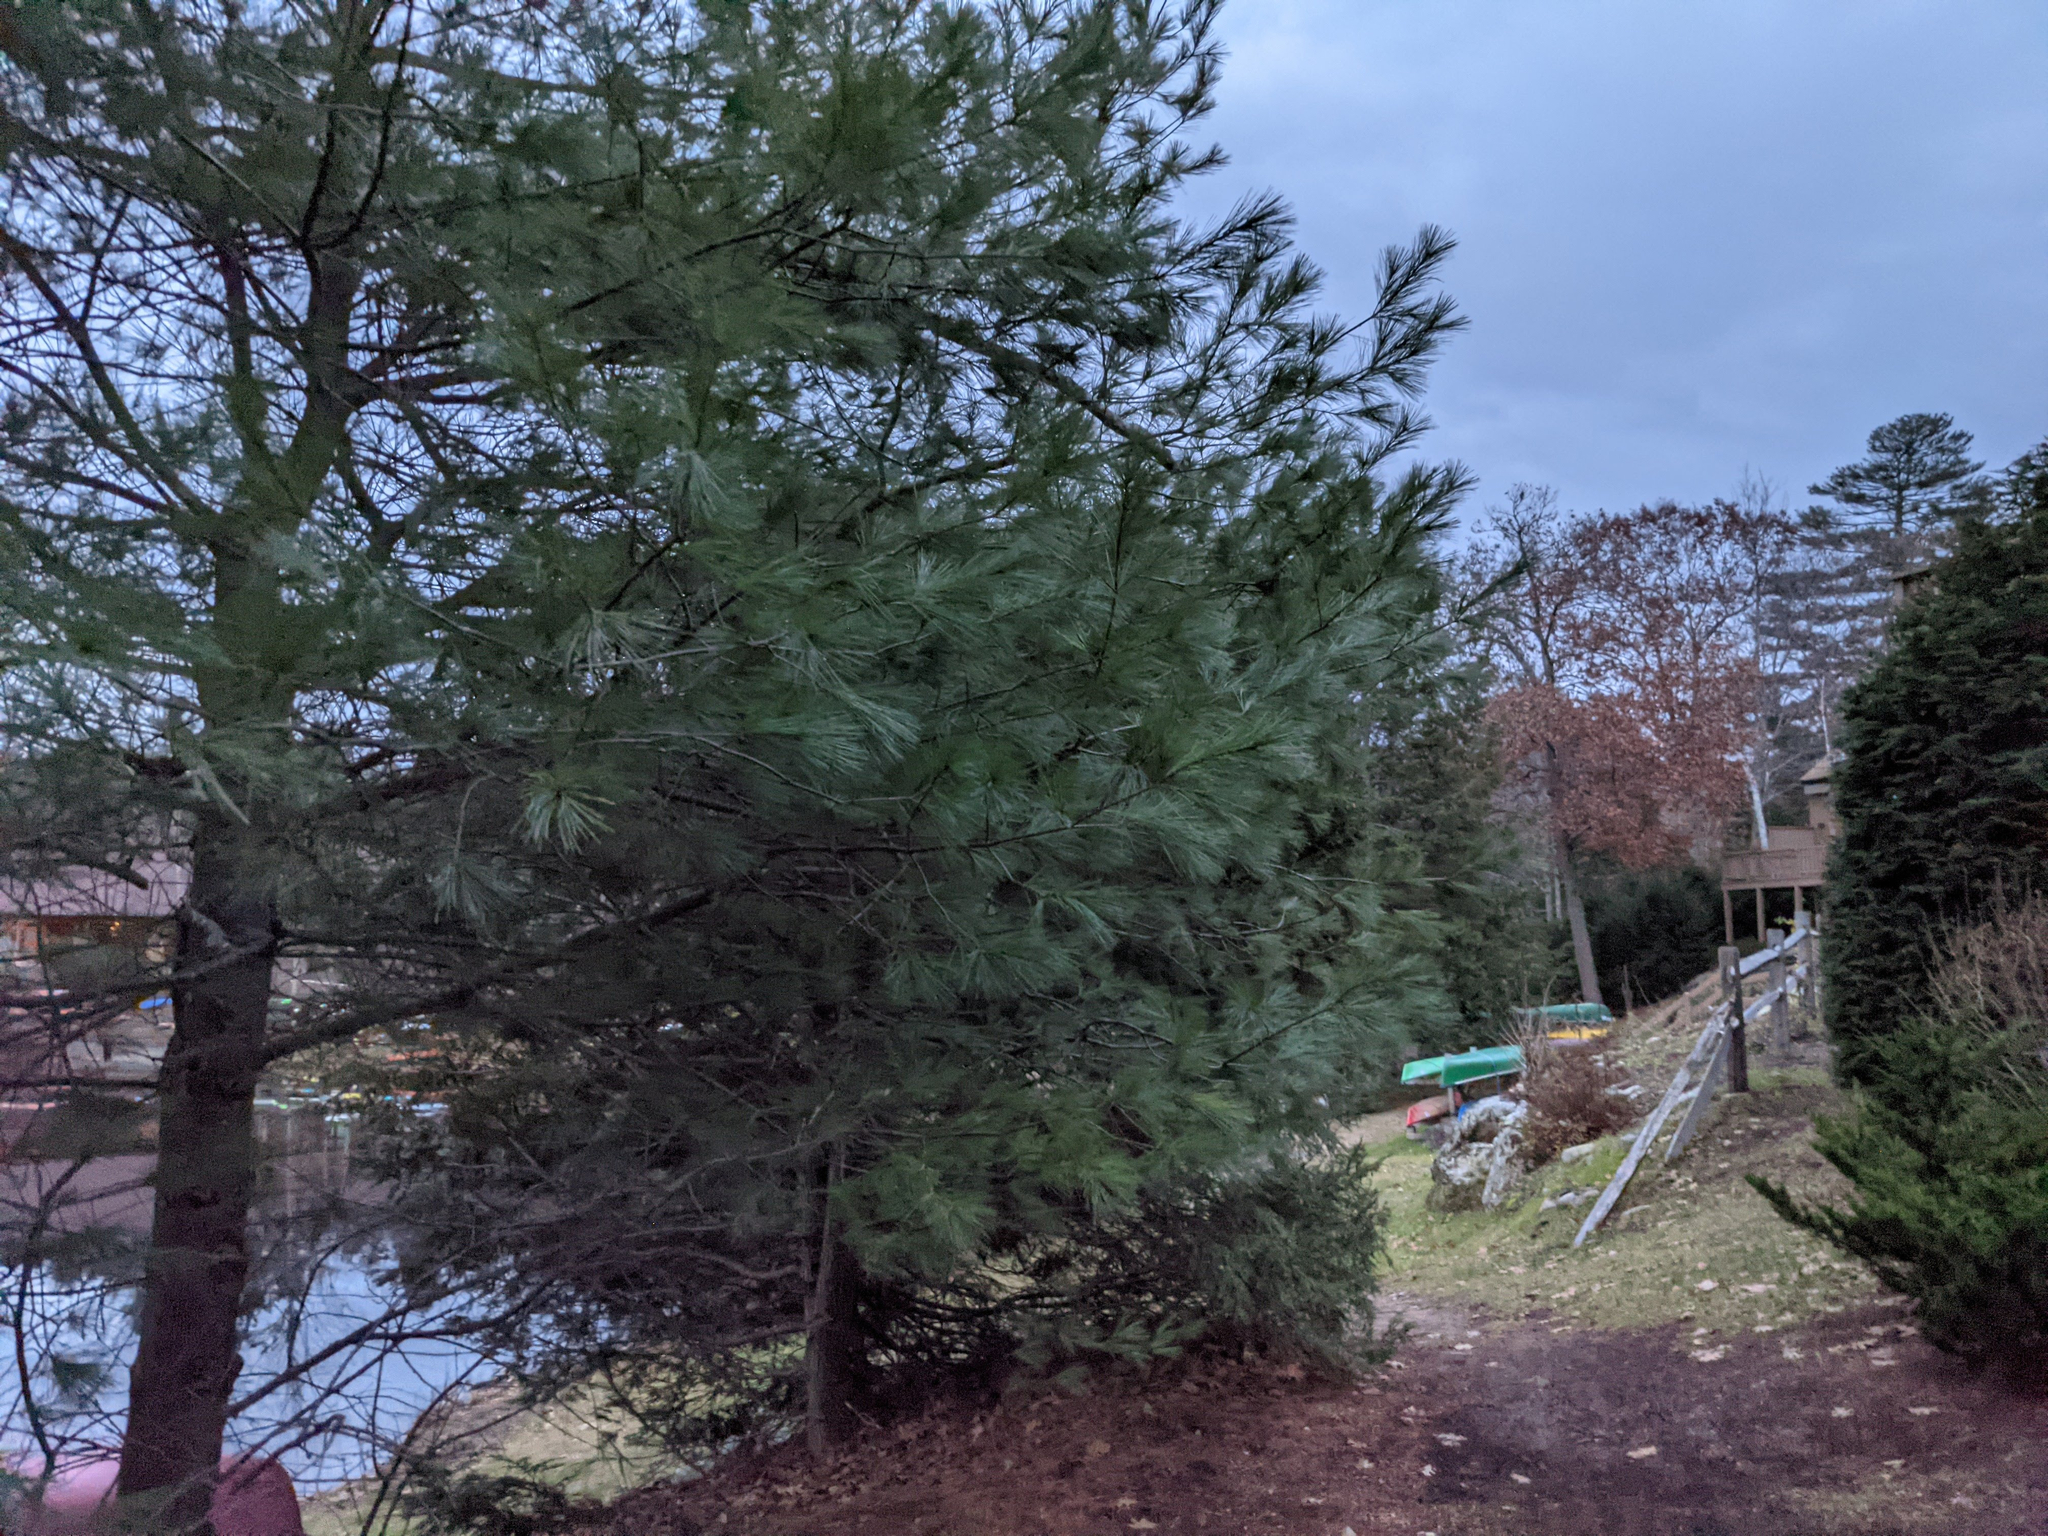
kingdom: Plantae
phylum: Tracheophyta
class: Pinopsida
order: Pinales
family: Pinaceae
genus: Pinus
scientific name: Pinus strobus
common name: Weymouth pine
